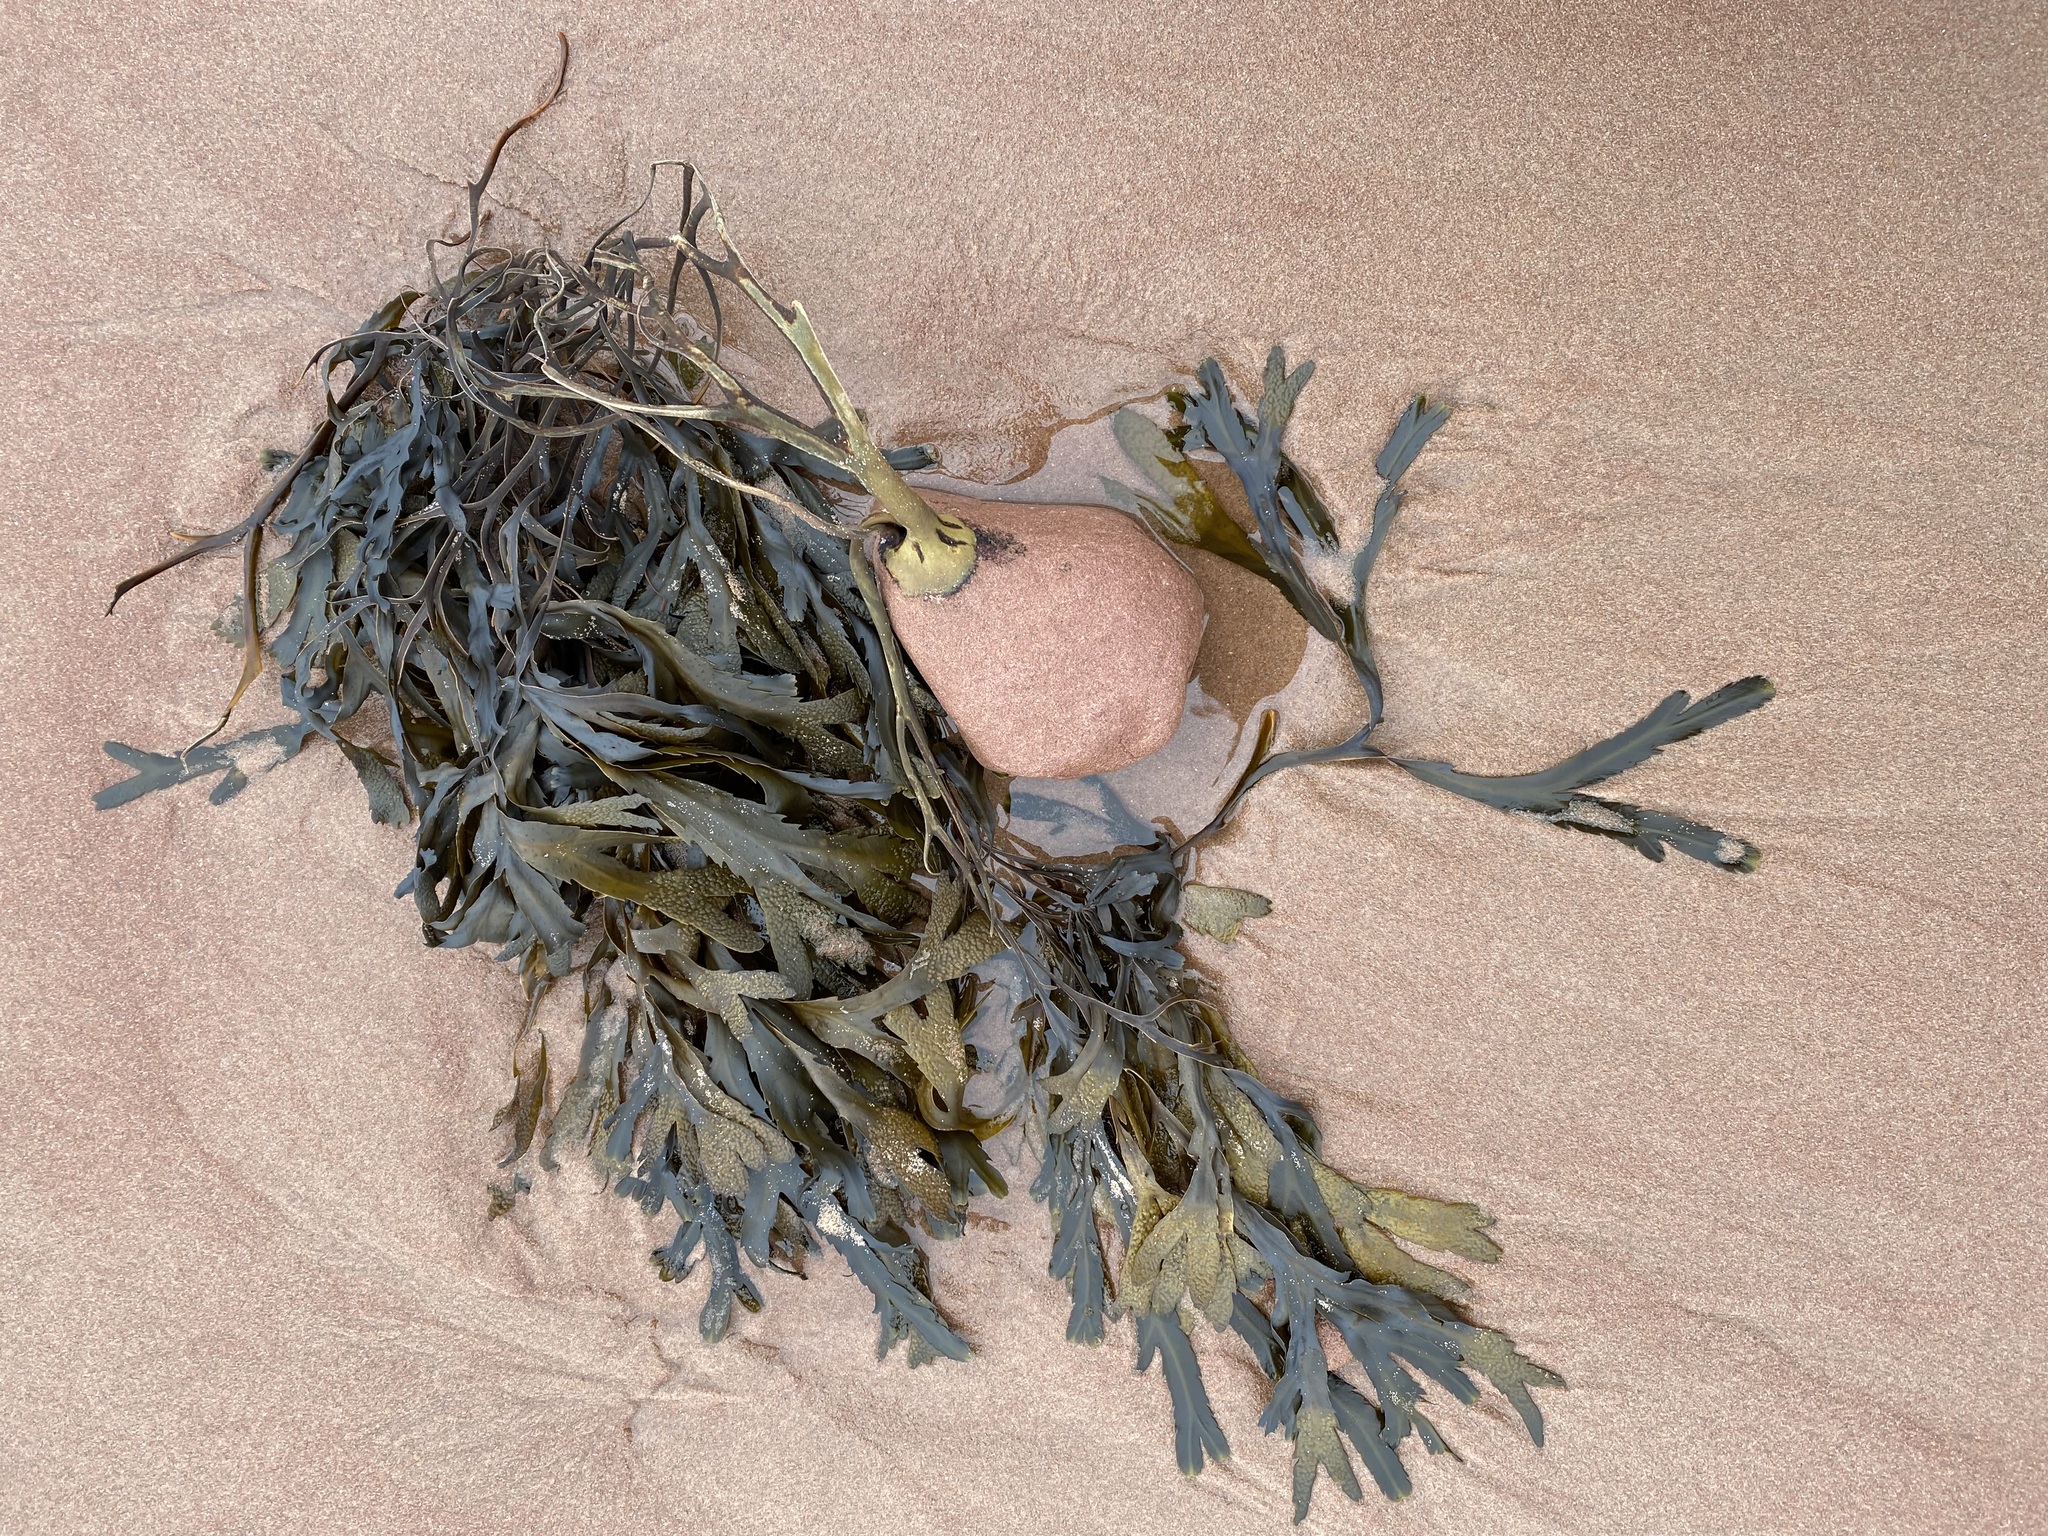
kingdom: Chromista
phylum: Ochrophyta
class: Phaeophyceae
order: Fucales
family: Fucaceae
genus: Fucus
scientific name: Fucus serratus
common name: Toothed wrack
